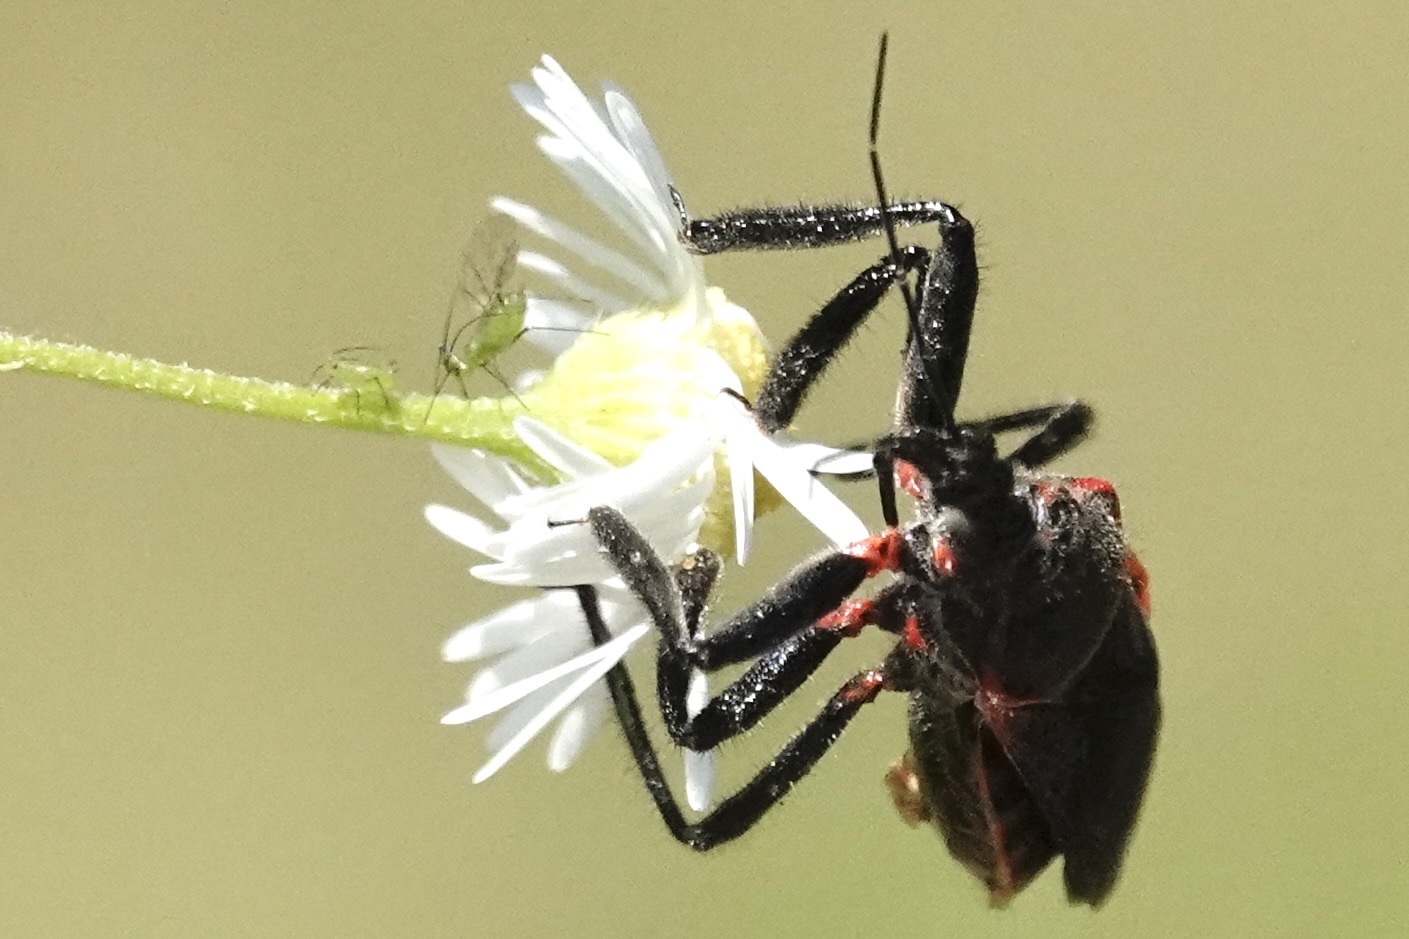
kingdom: Animalia
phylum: Arthropoda
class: Insecta
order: Hemiptera
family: Reduviidae
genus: Apiomerus
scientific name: Apiomerus crassipes
